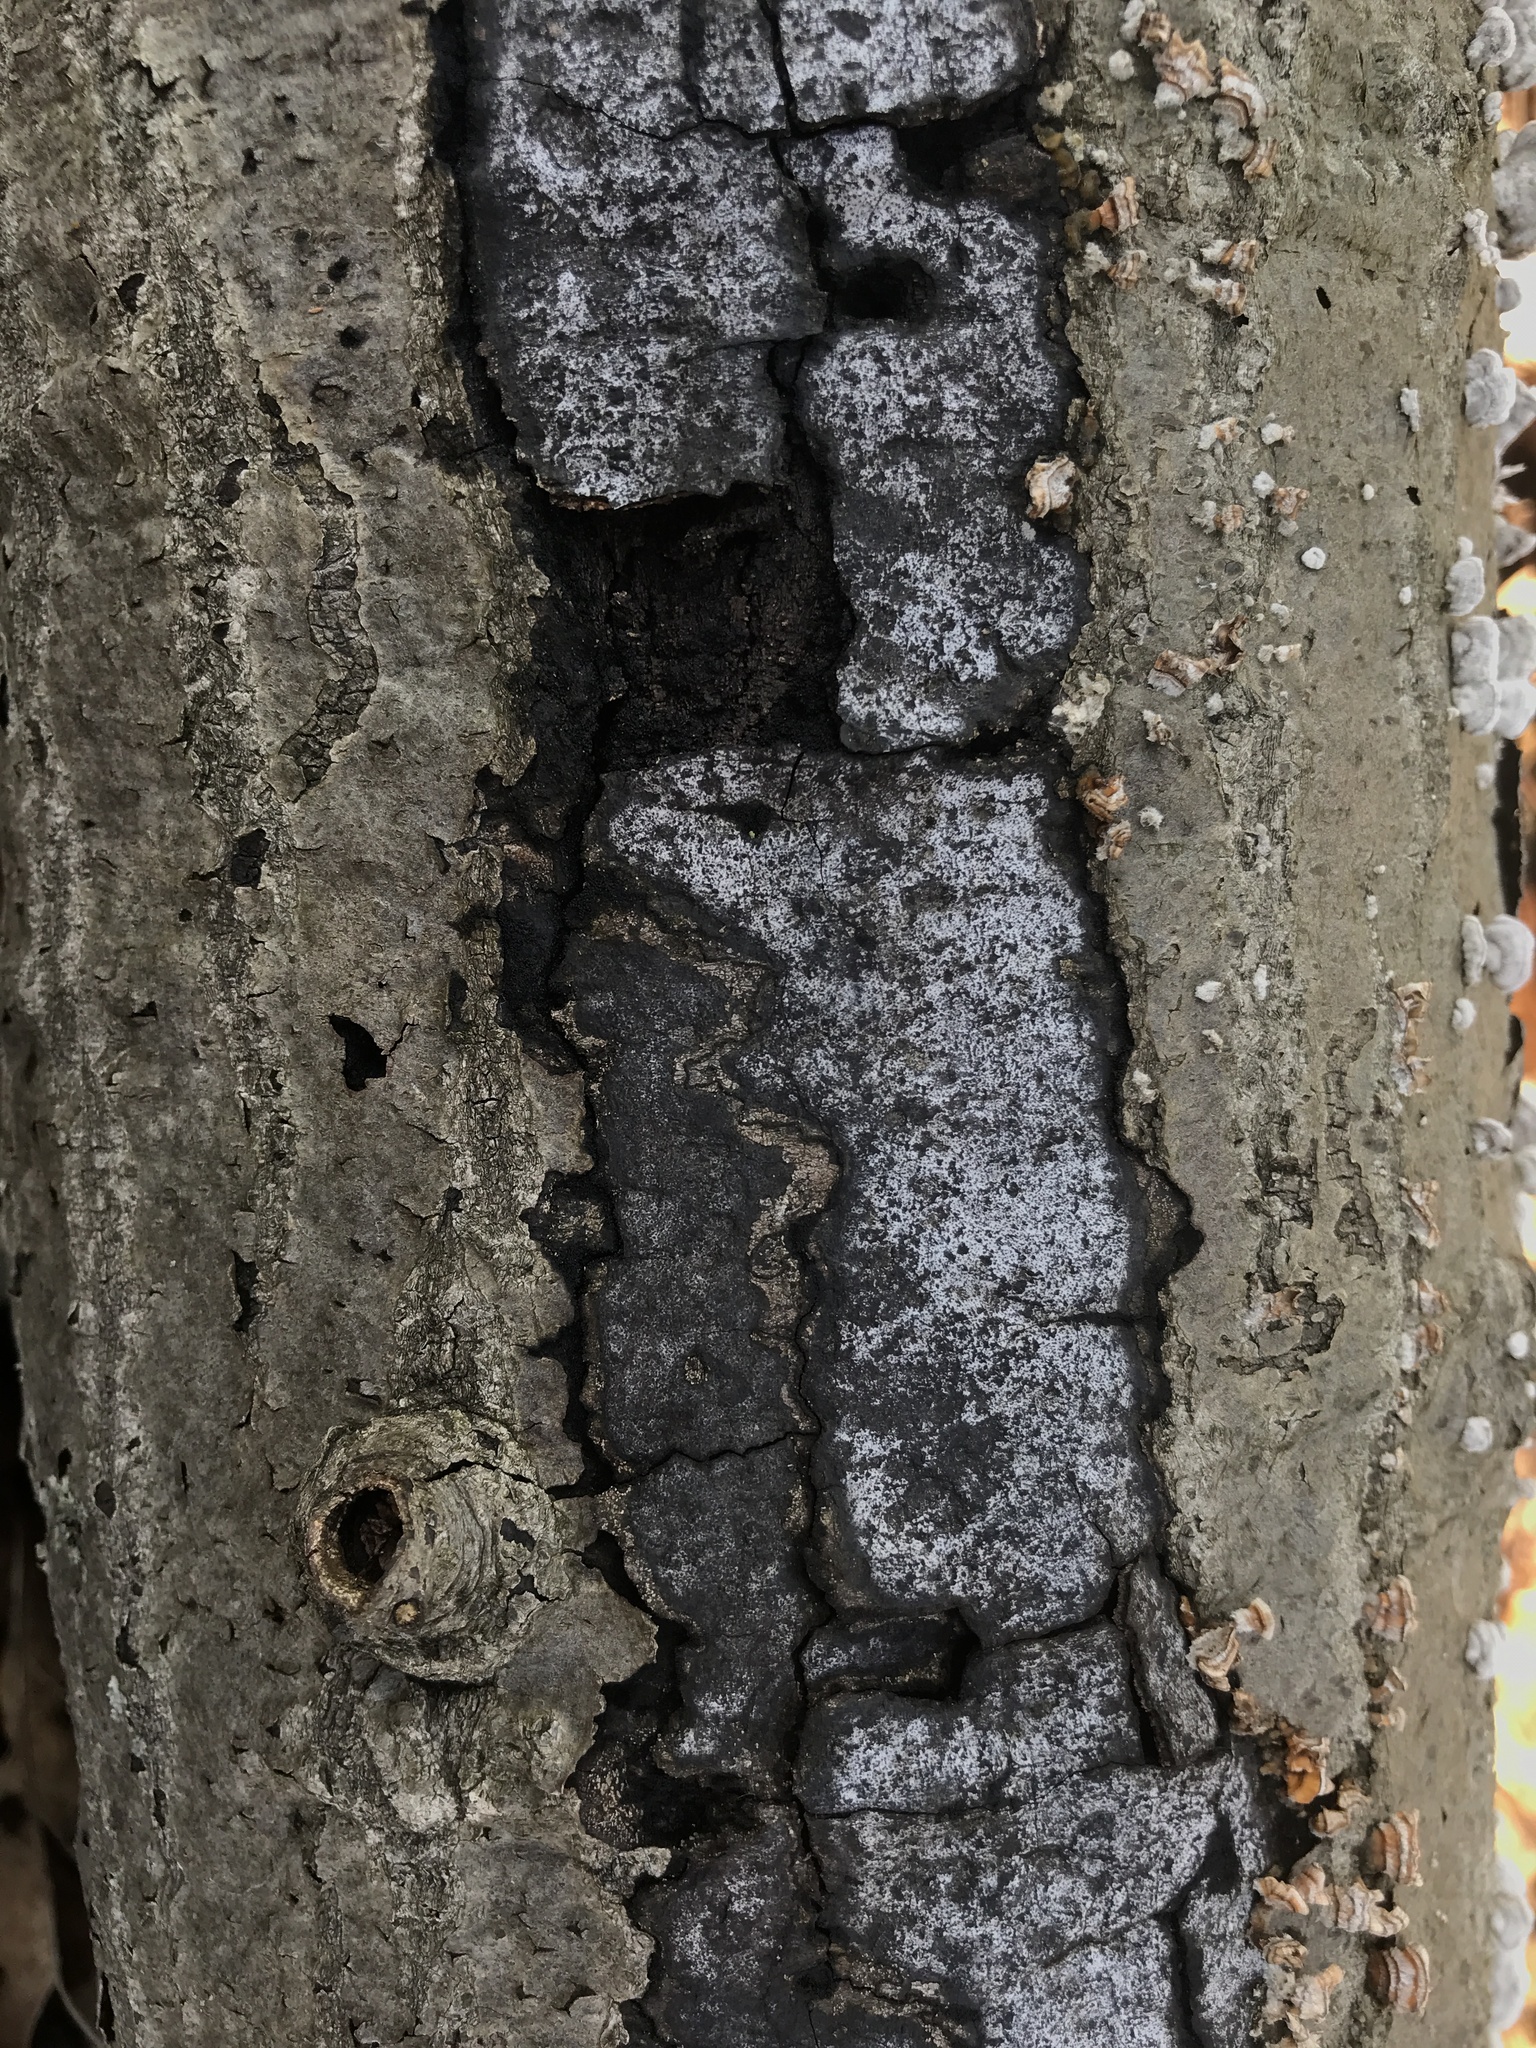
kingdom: Fungi
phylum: Ascomycota
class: Sordariomycetes
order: Xylariales
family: Graphostromataceae
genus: Biscogniauxia
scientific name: Biscogniauxia atropunctata
